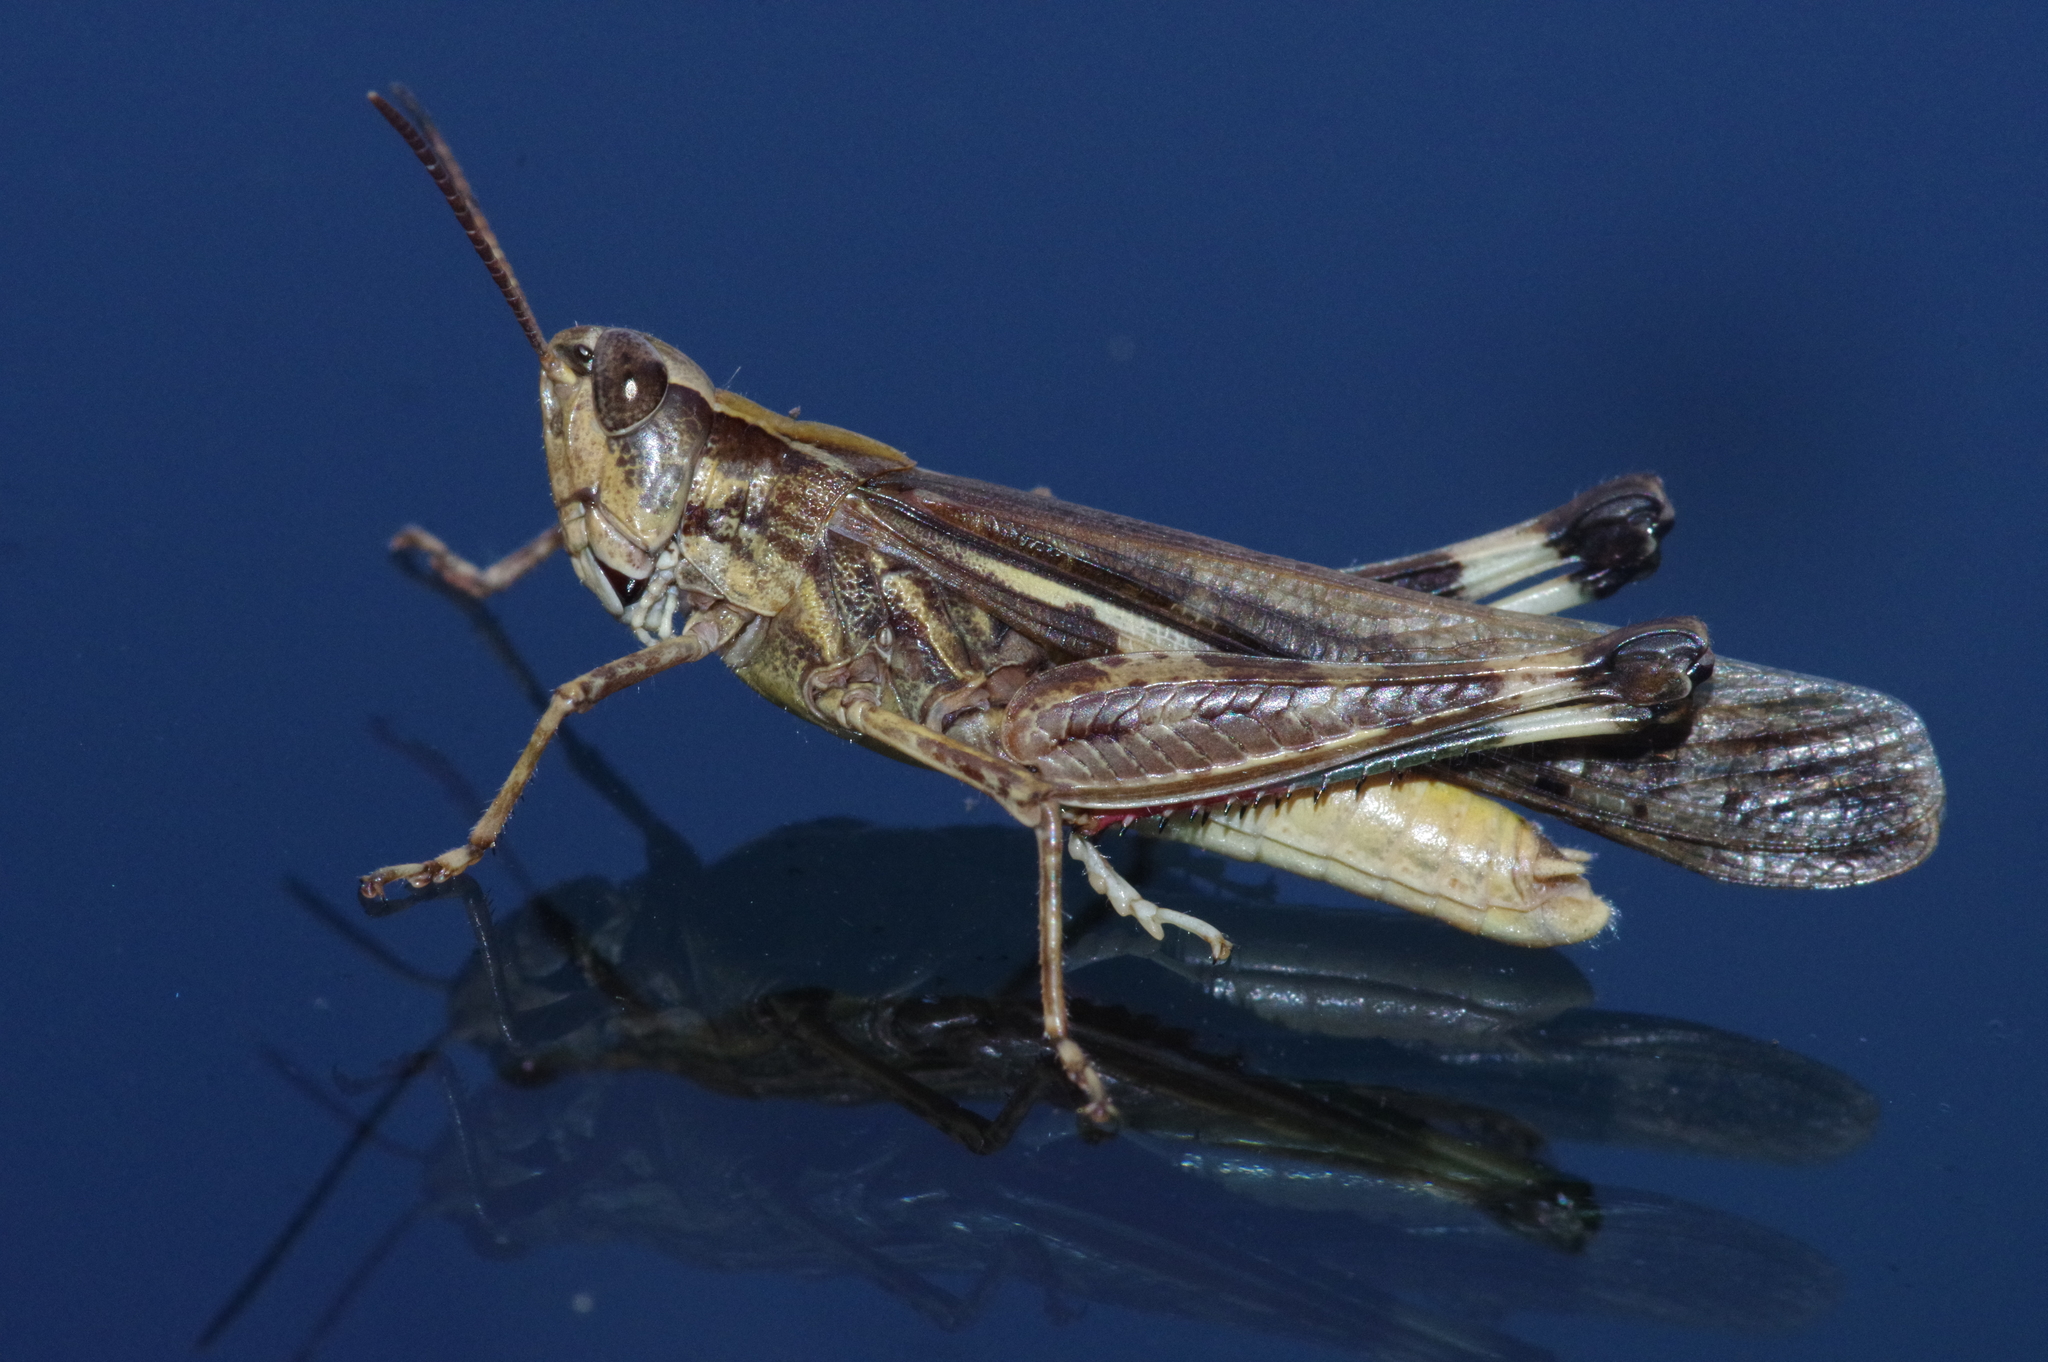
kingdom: Animalia
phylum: Arthropoda
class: Insecta
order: Orthoptera
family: Acrididae
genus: Aiolopus
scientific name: Aiolopus thalassinus
